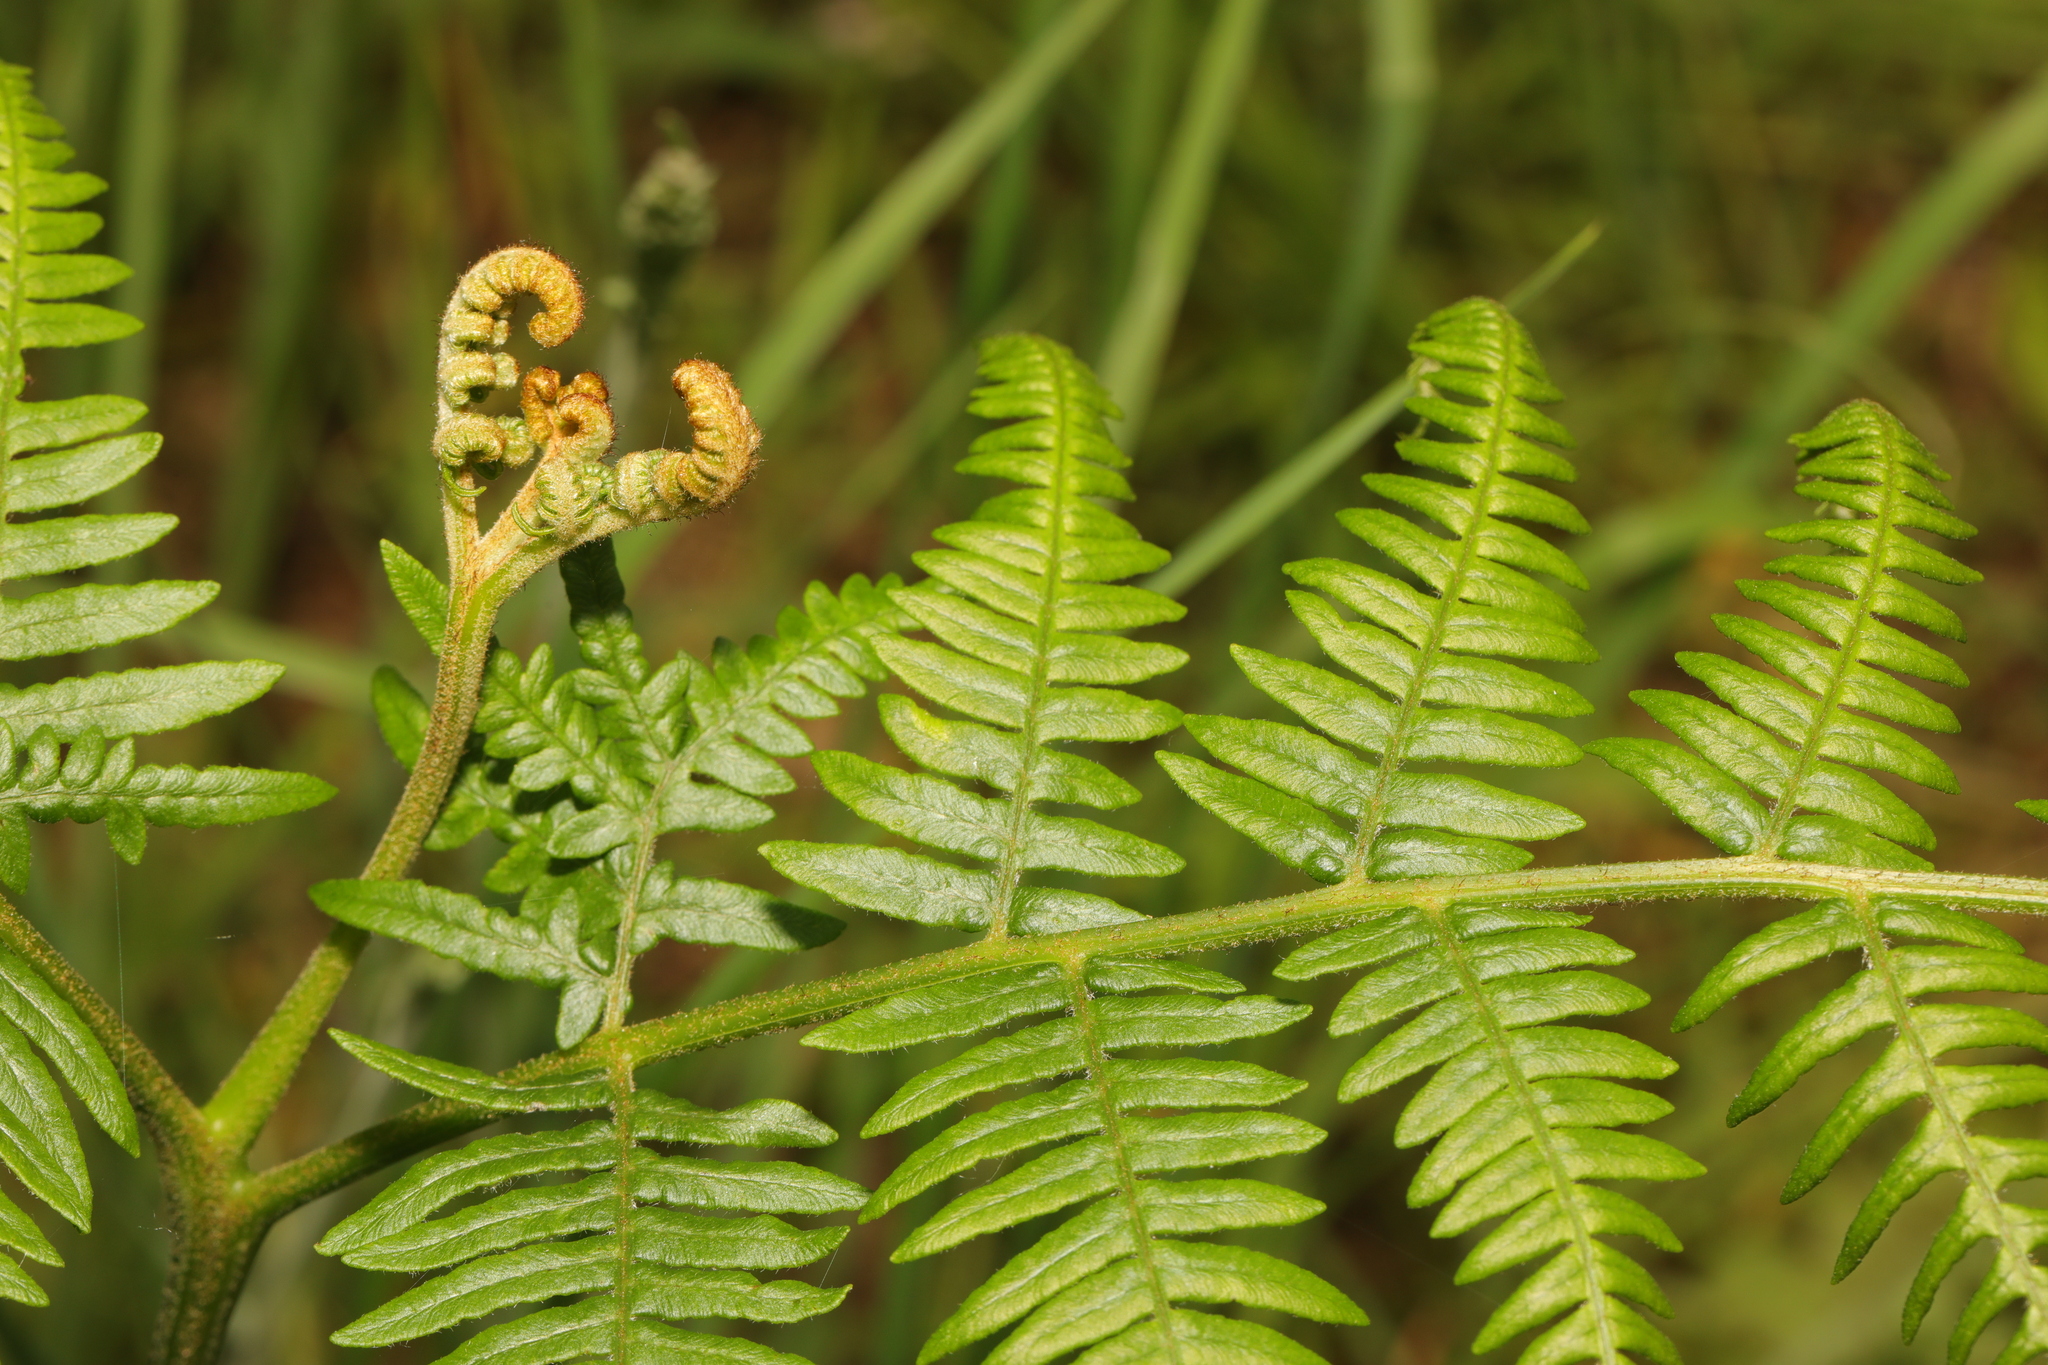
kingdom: Plantae
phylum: Tracheophyta
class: Polypodiopsida
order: Polypodiales
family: Dennstaedtiaceae
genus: Pteridium
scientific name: Pteridium aquilinum
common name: Bracken
